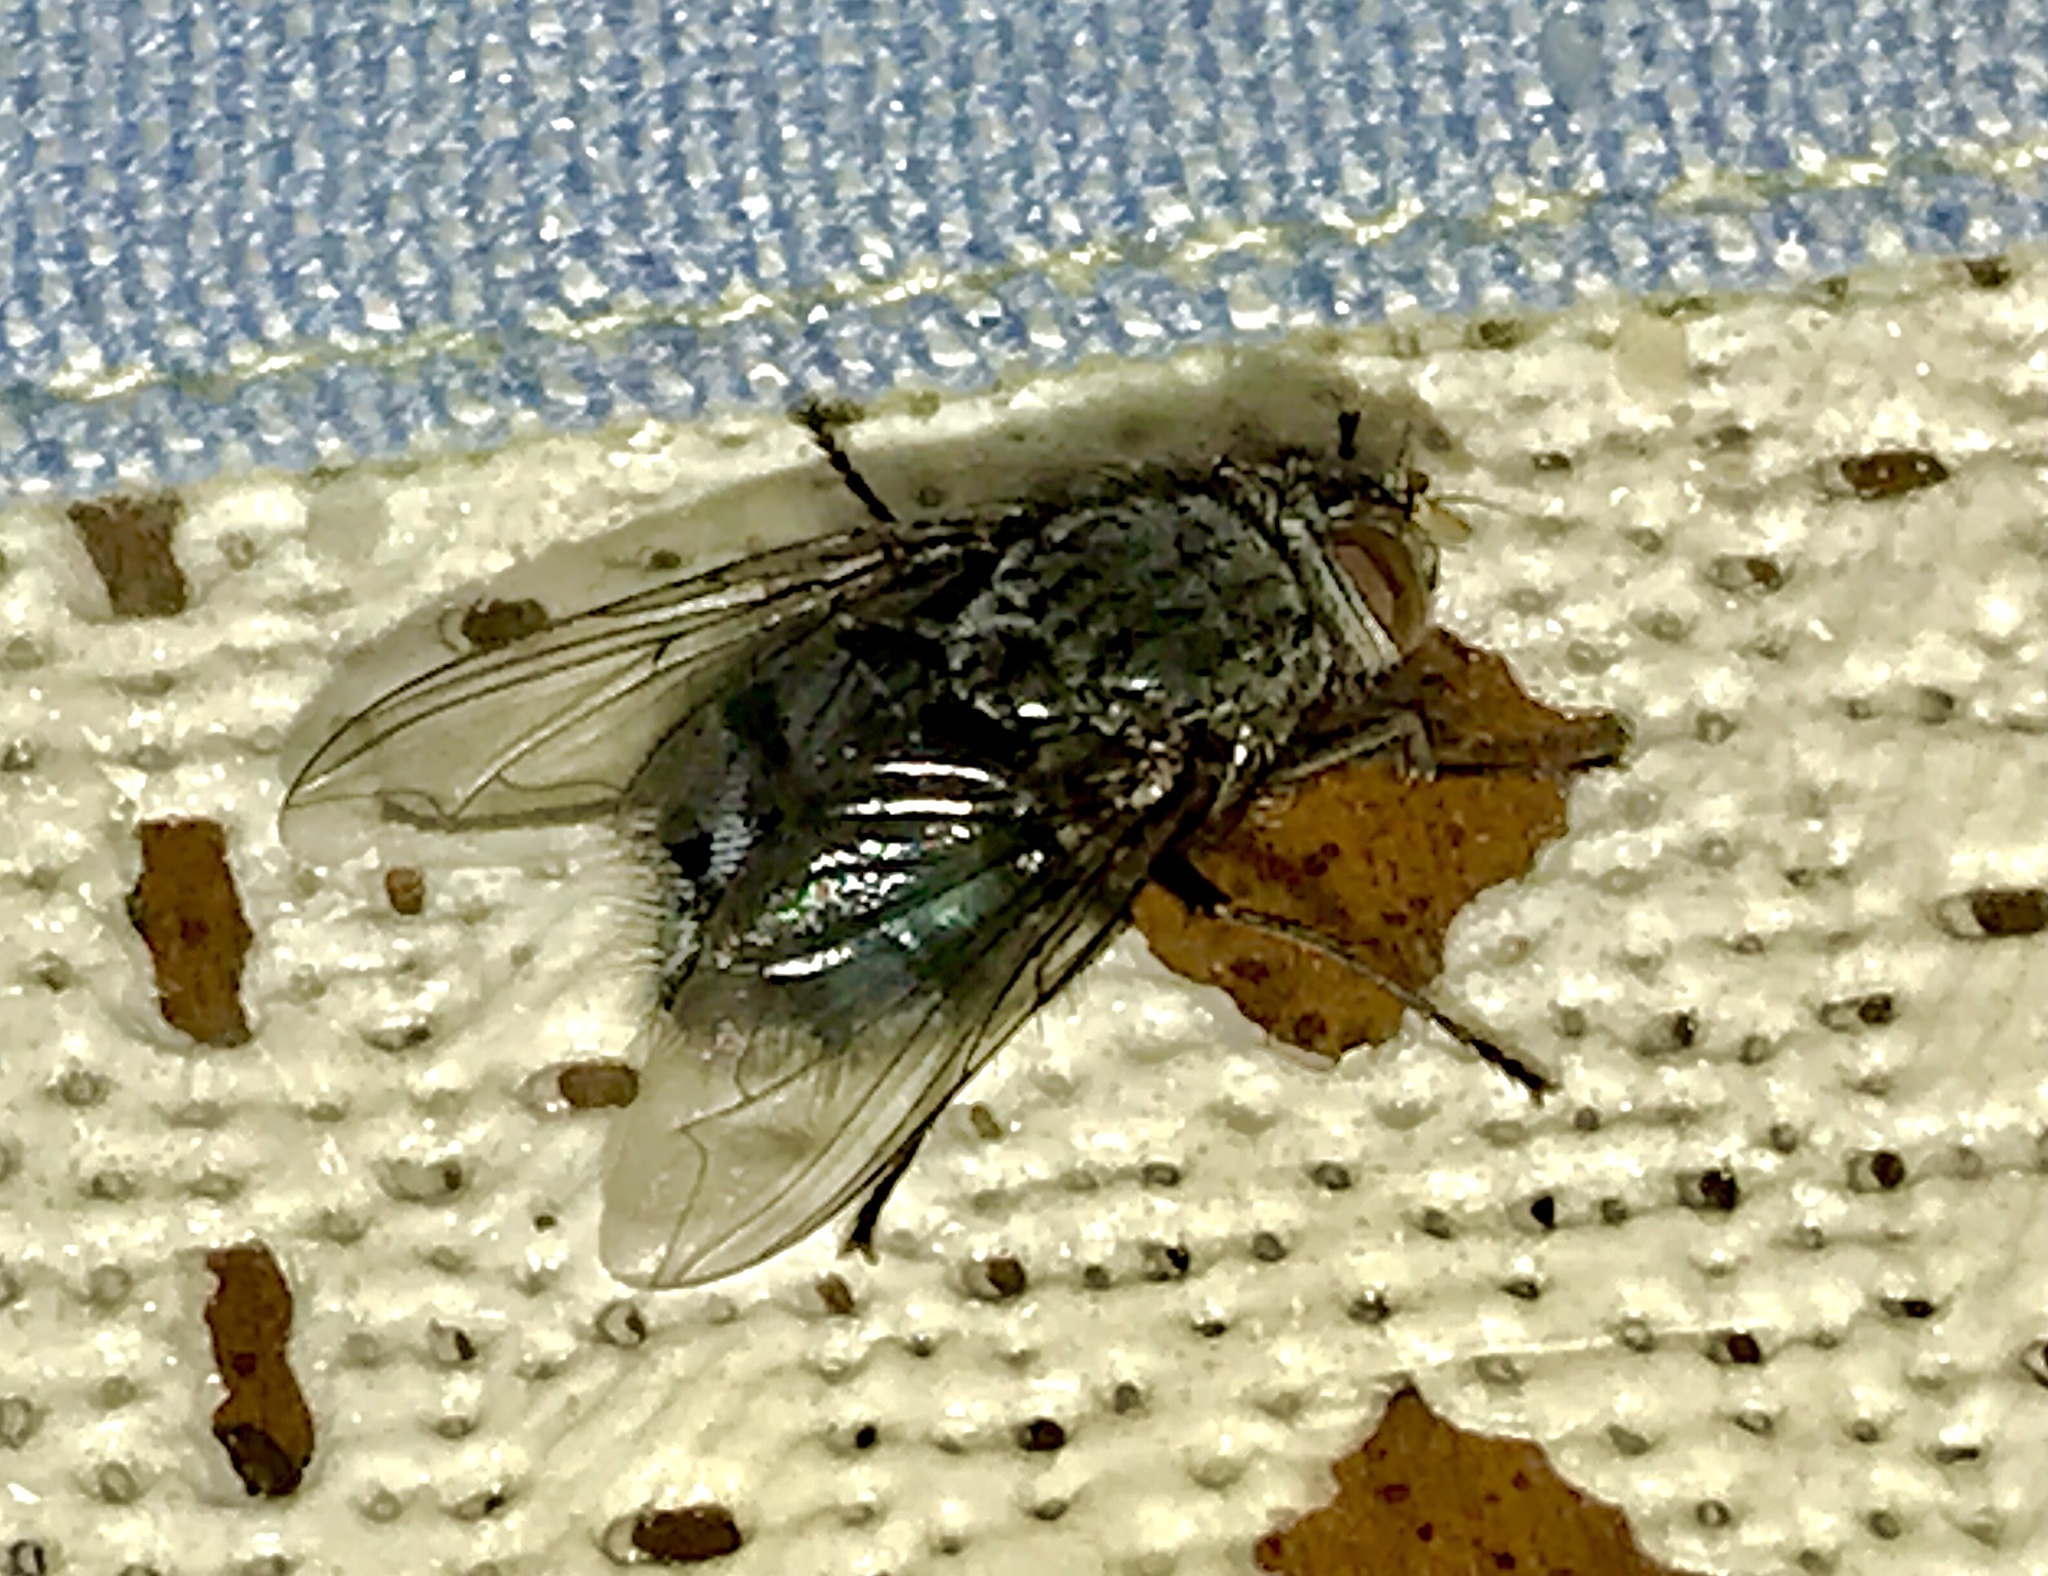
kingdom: Animalia
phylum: Arthropoda
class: Insecta
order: Diptera
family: Calliphoridae
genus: Calliphora
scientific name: Calliphora vicina
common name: Common blow flie
